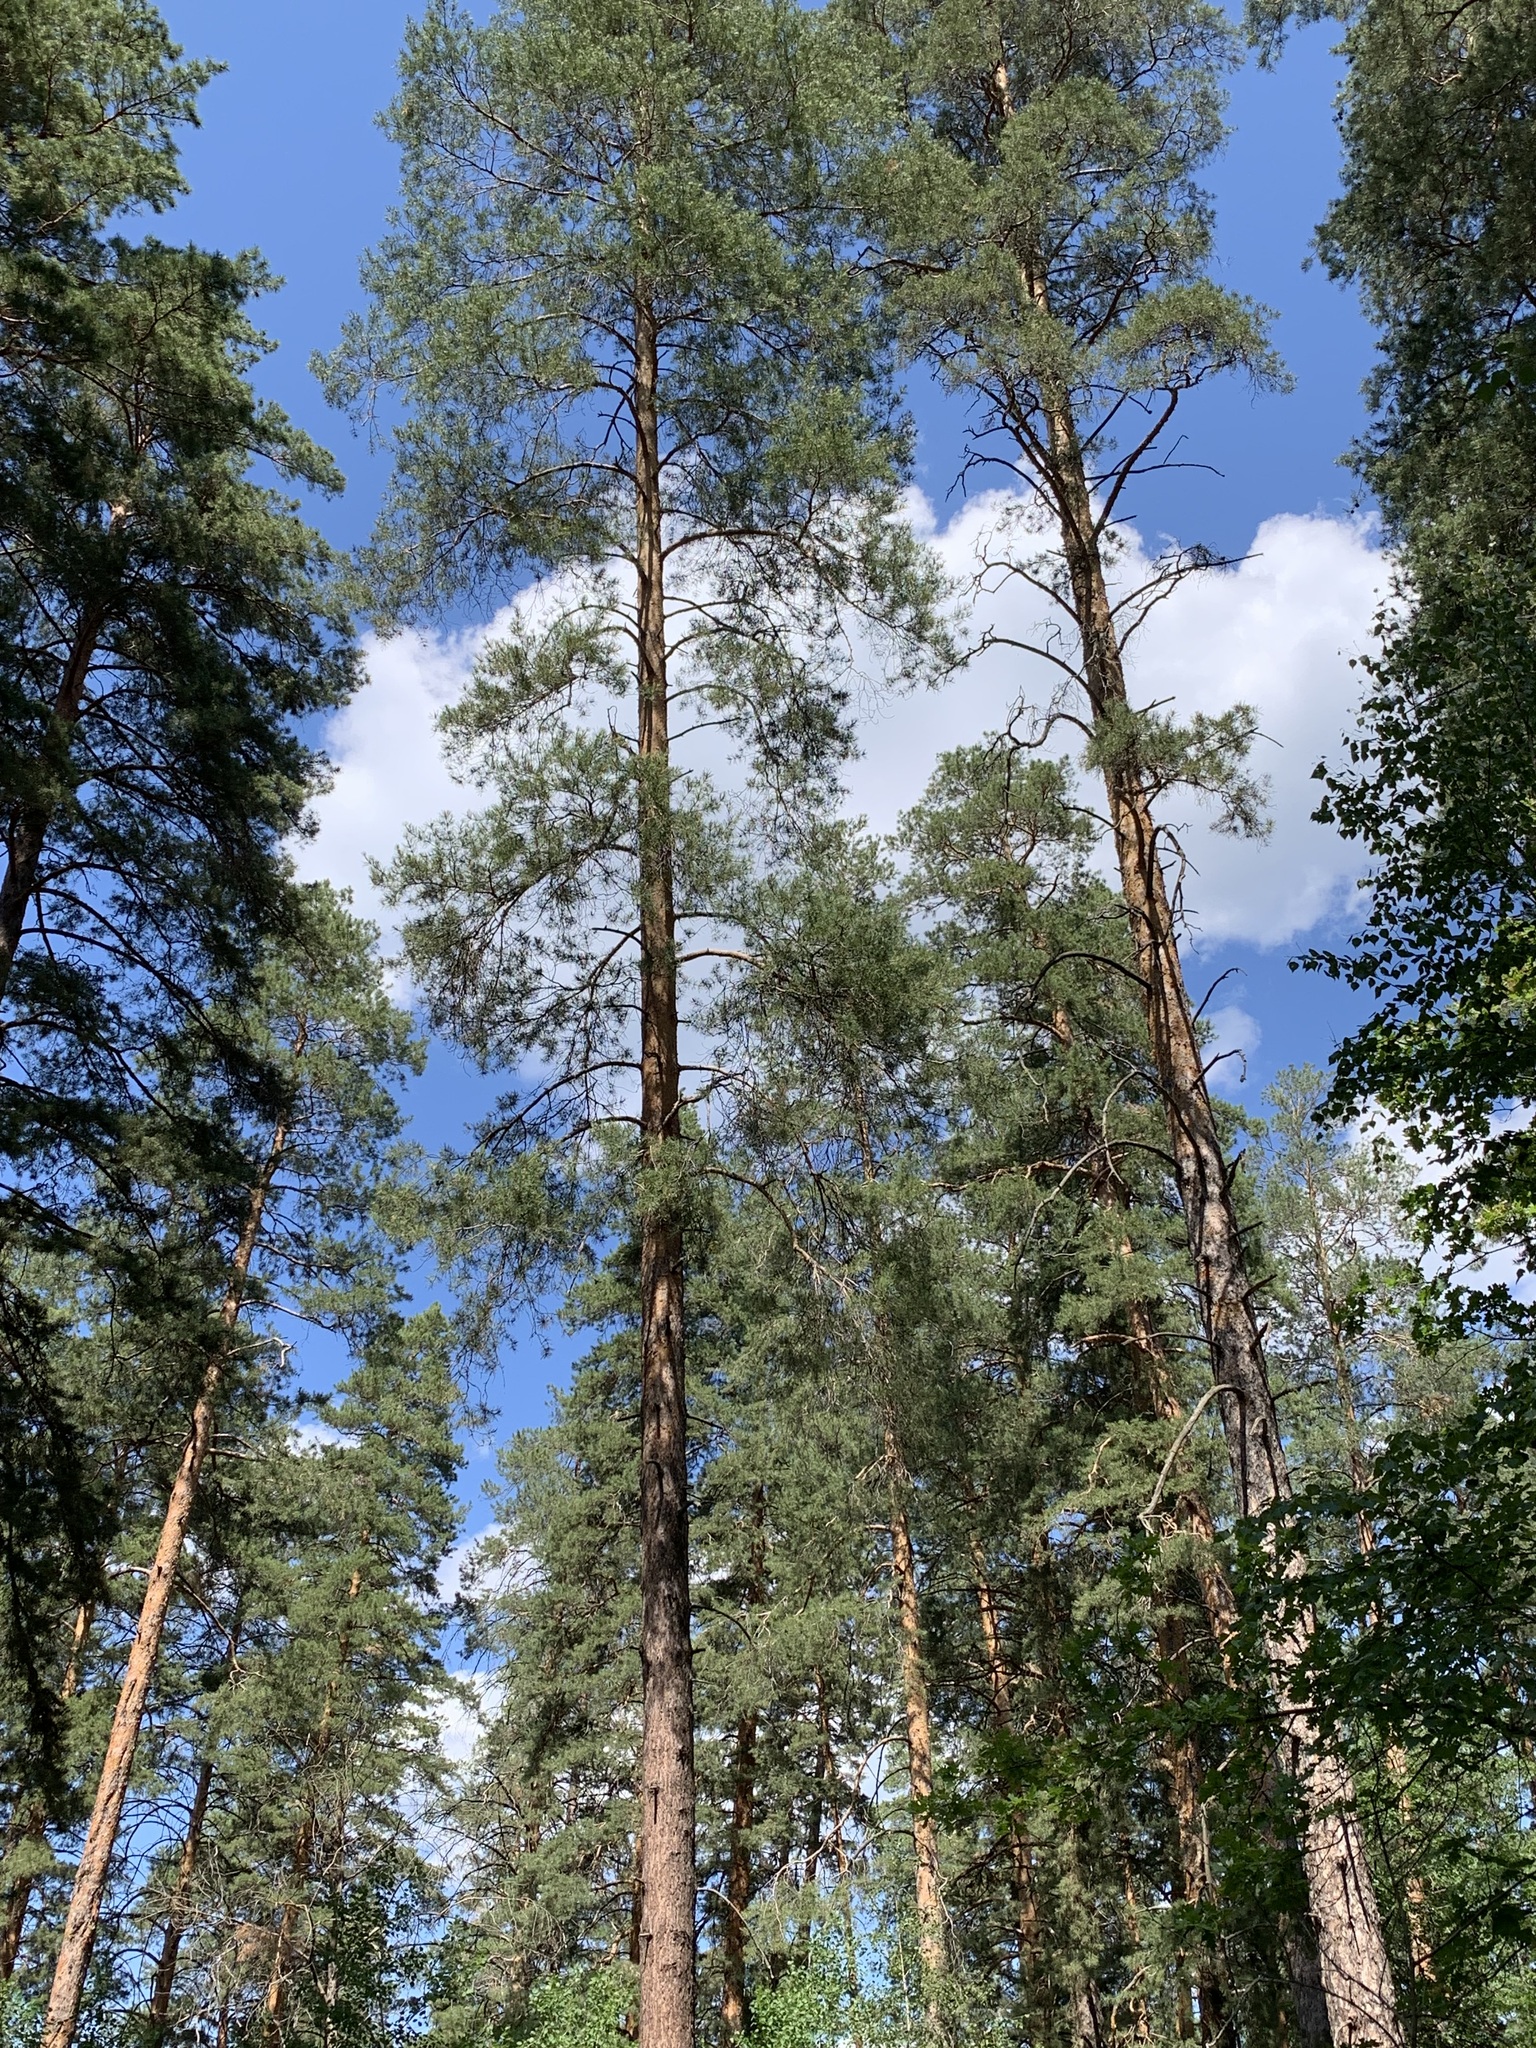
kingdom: Plantae
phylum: Tracheophyta
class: Pinopsida
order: Pinales
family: Pinaceae
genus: Pinus
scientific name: Pinus sylvestris
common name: Scots pine
